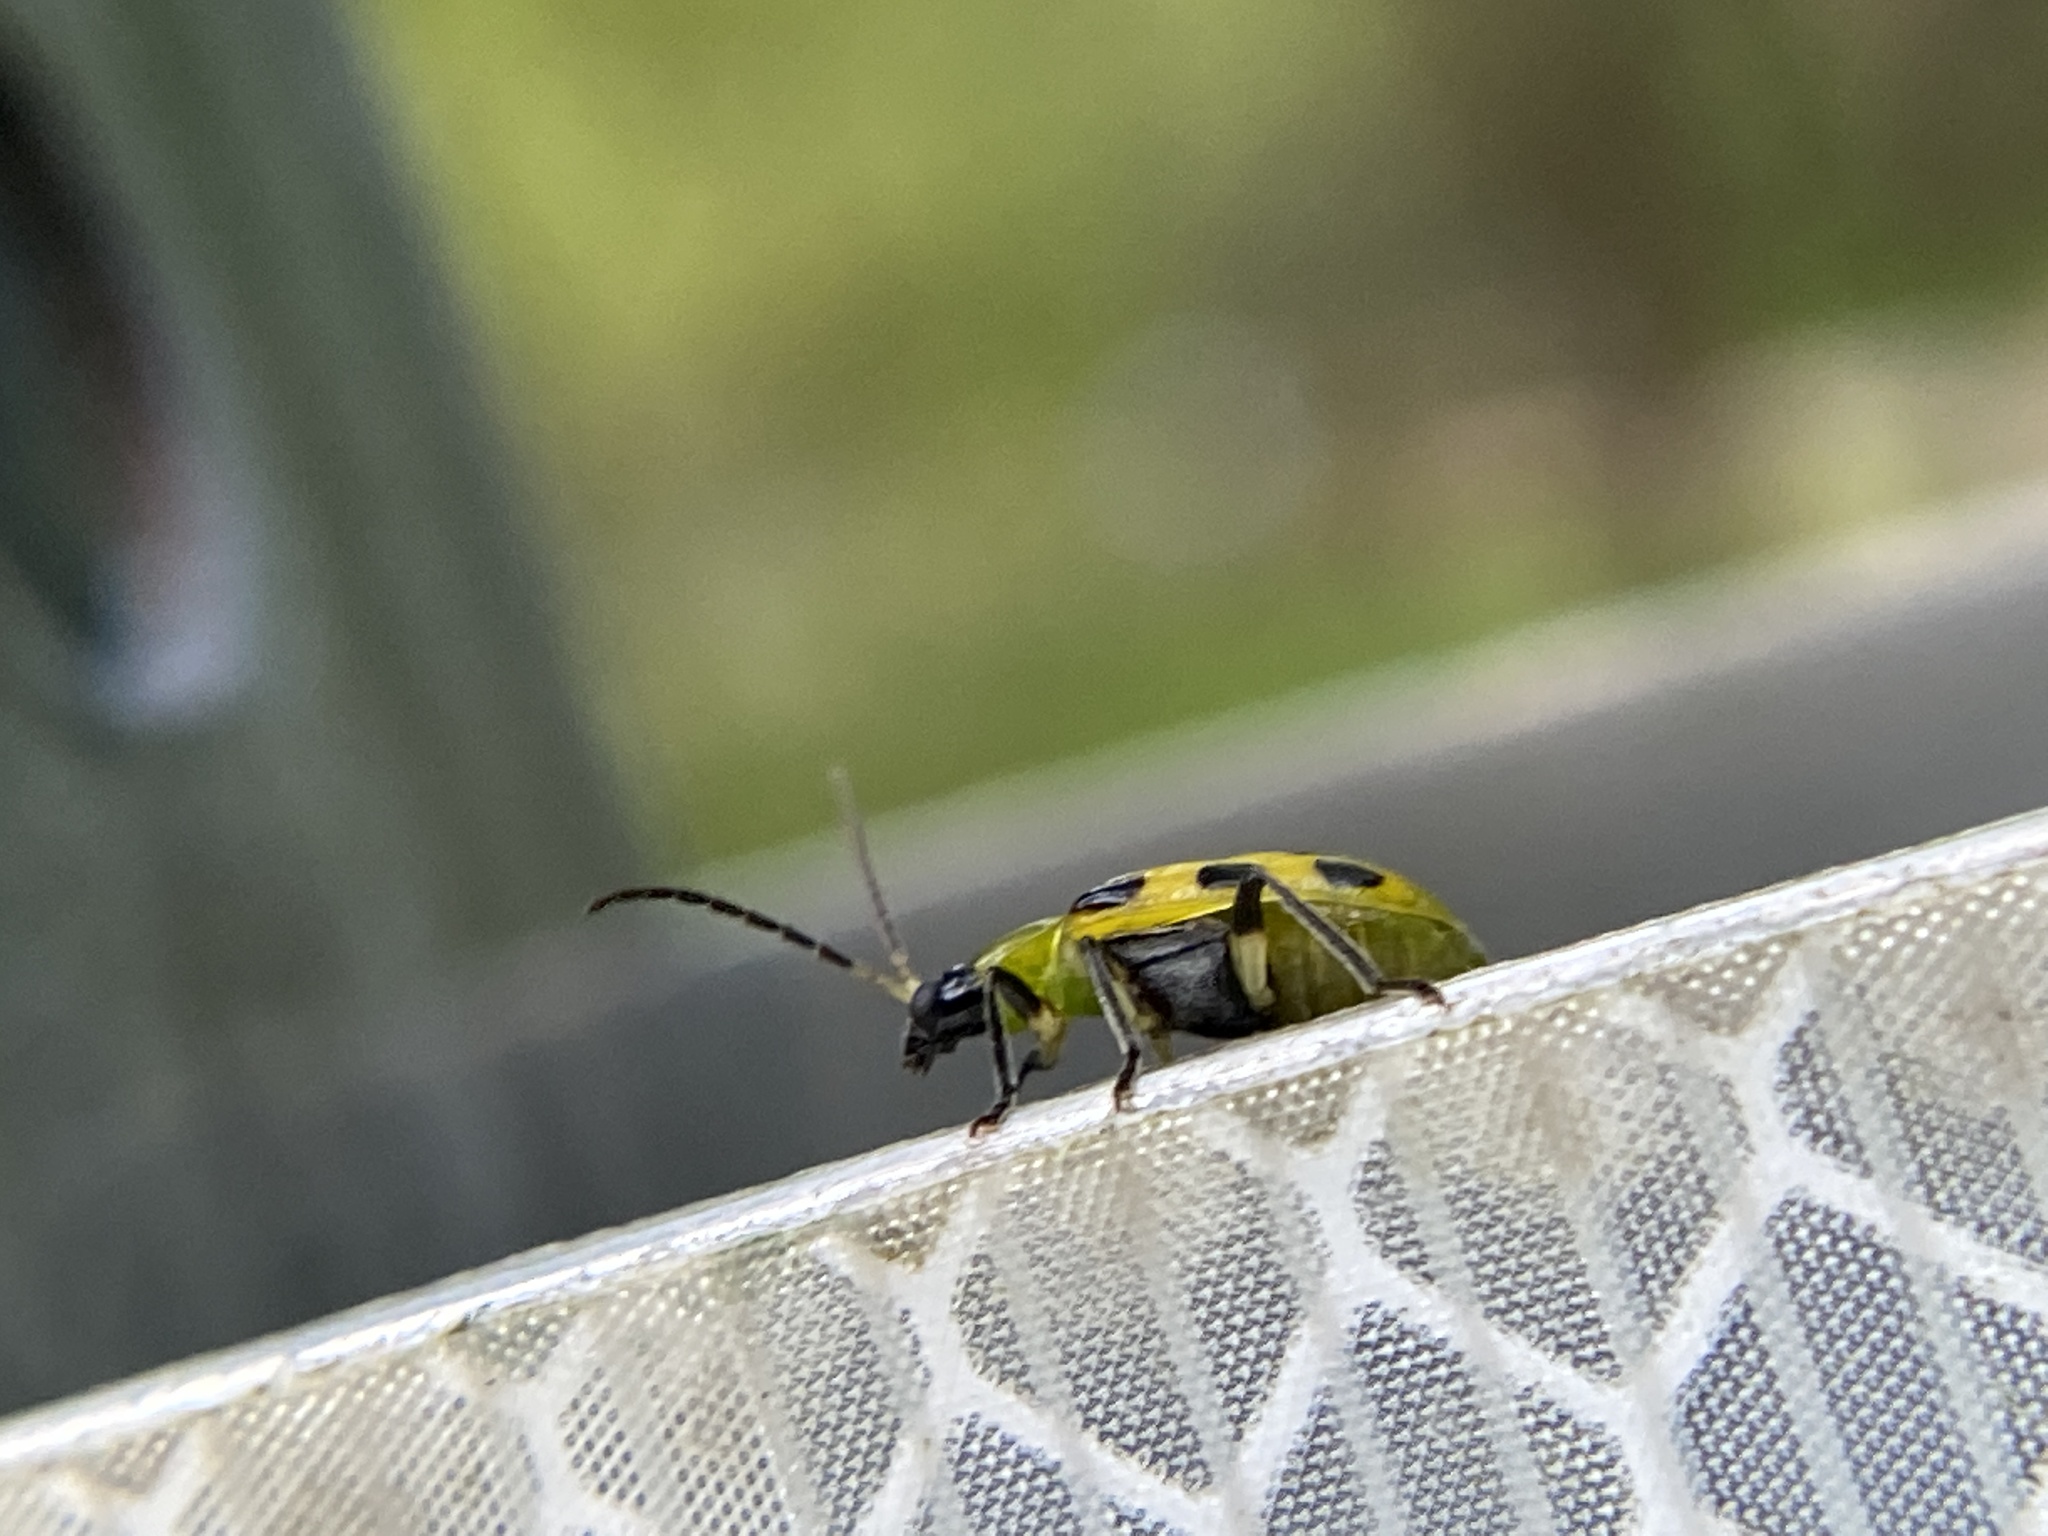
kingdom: Animalia
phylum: Arthropoda
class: Insecta
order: Coleoptera
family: Chrysomelidae
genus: Diabrotica
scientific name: Diabrotica undecimpunctata
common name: Spotted cucumber beetle
